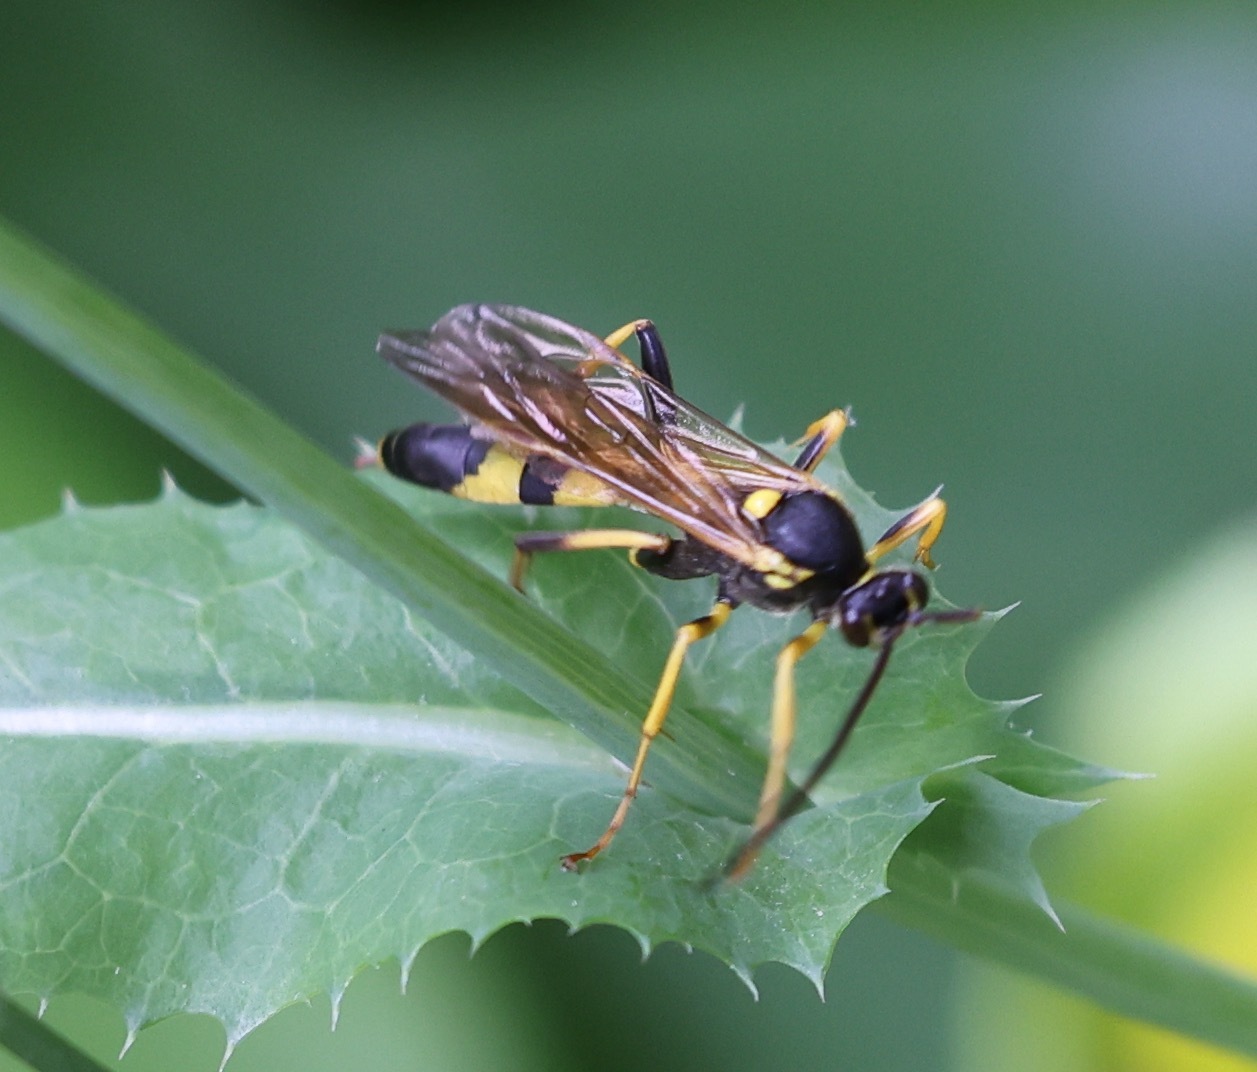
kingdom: Animalia
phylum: Arthropoda
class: Insecta
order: Hymenoptera
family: Ichneumonidae
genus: Amblyteles
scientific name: Amblyteles armatorius
